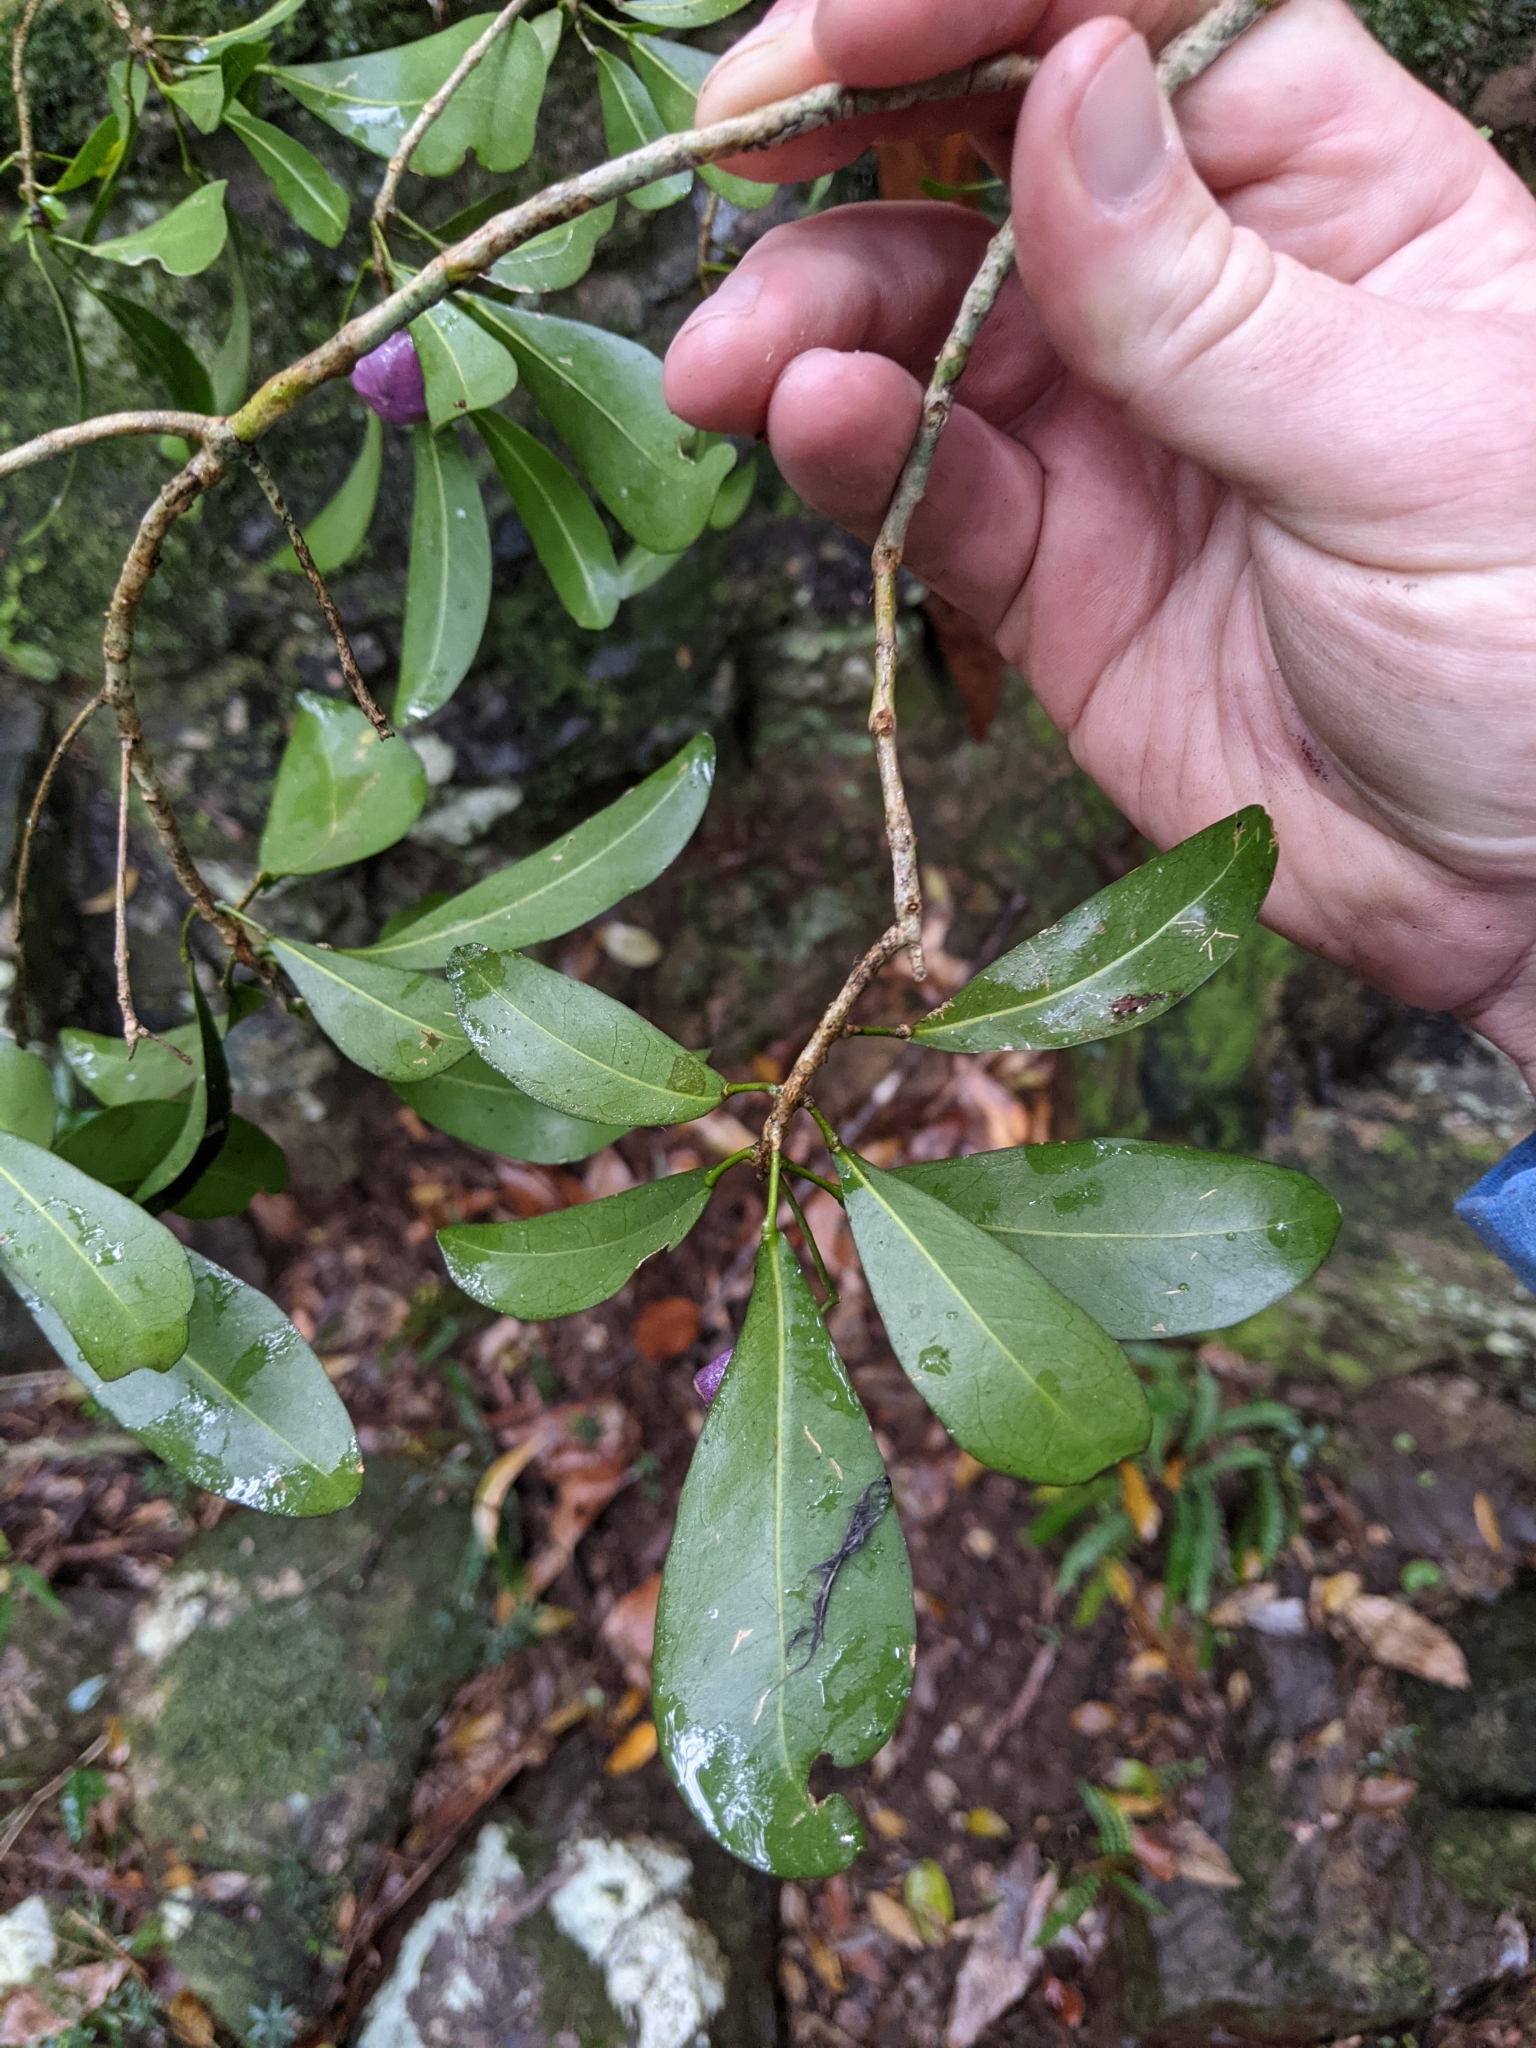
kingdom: Plantae
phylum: Tracheophyta
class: Magnoliopsida
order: Sapindales
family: Rutaceae
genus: Acronychia
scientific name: Acronychia laevis
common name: Hard aspen
